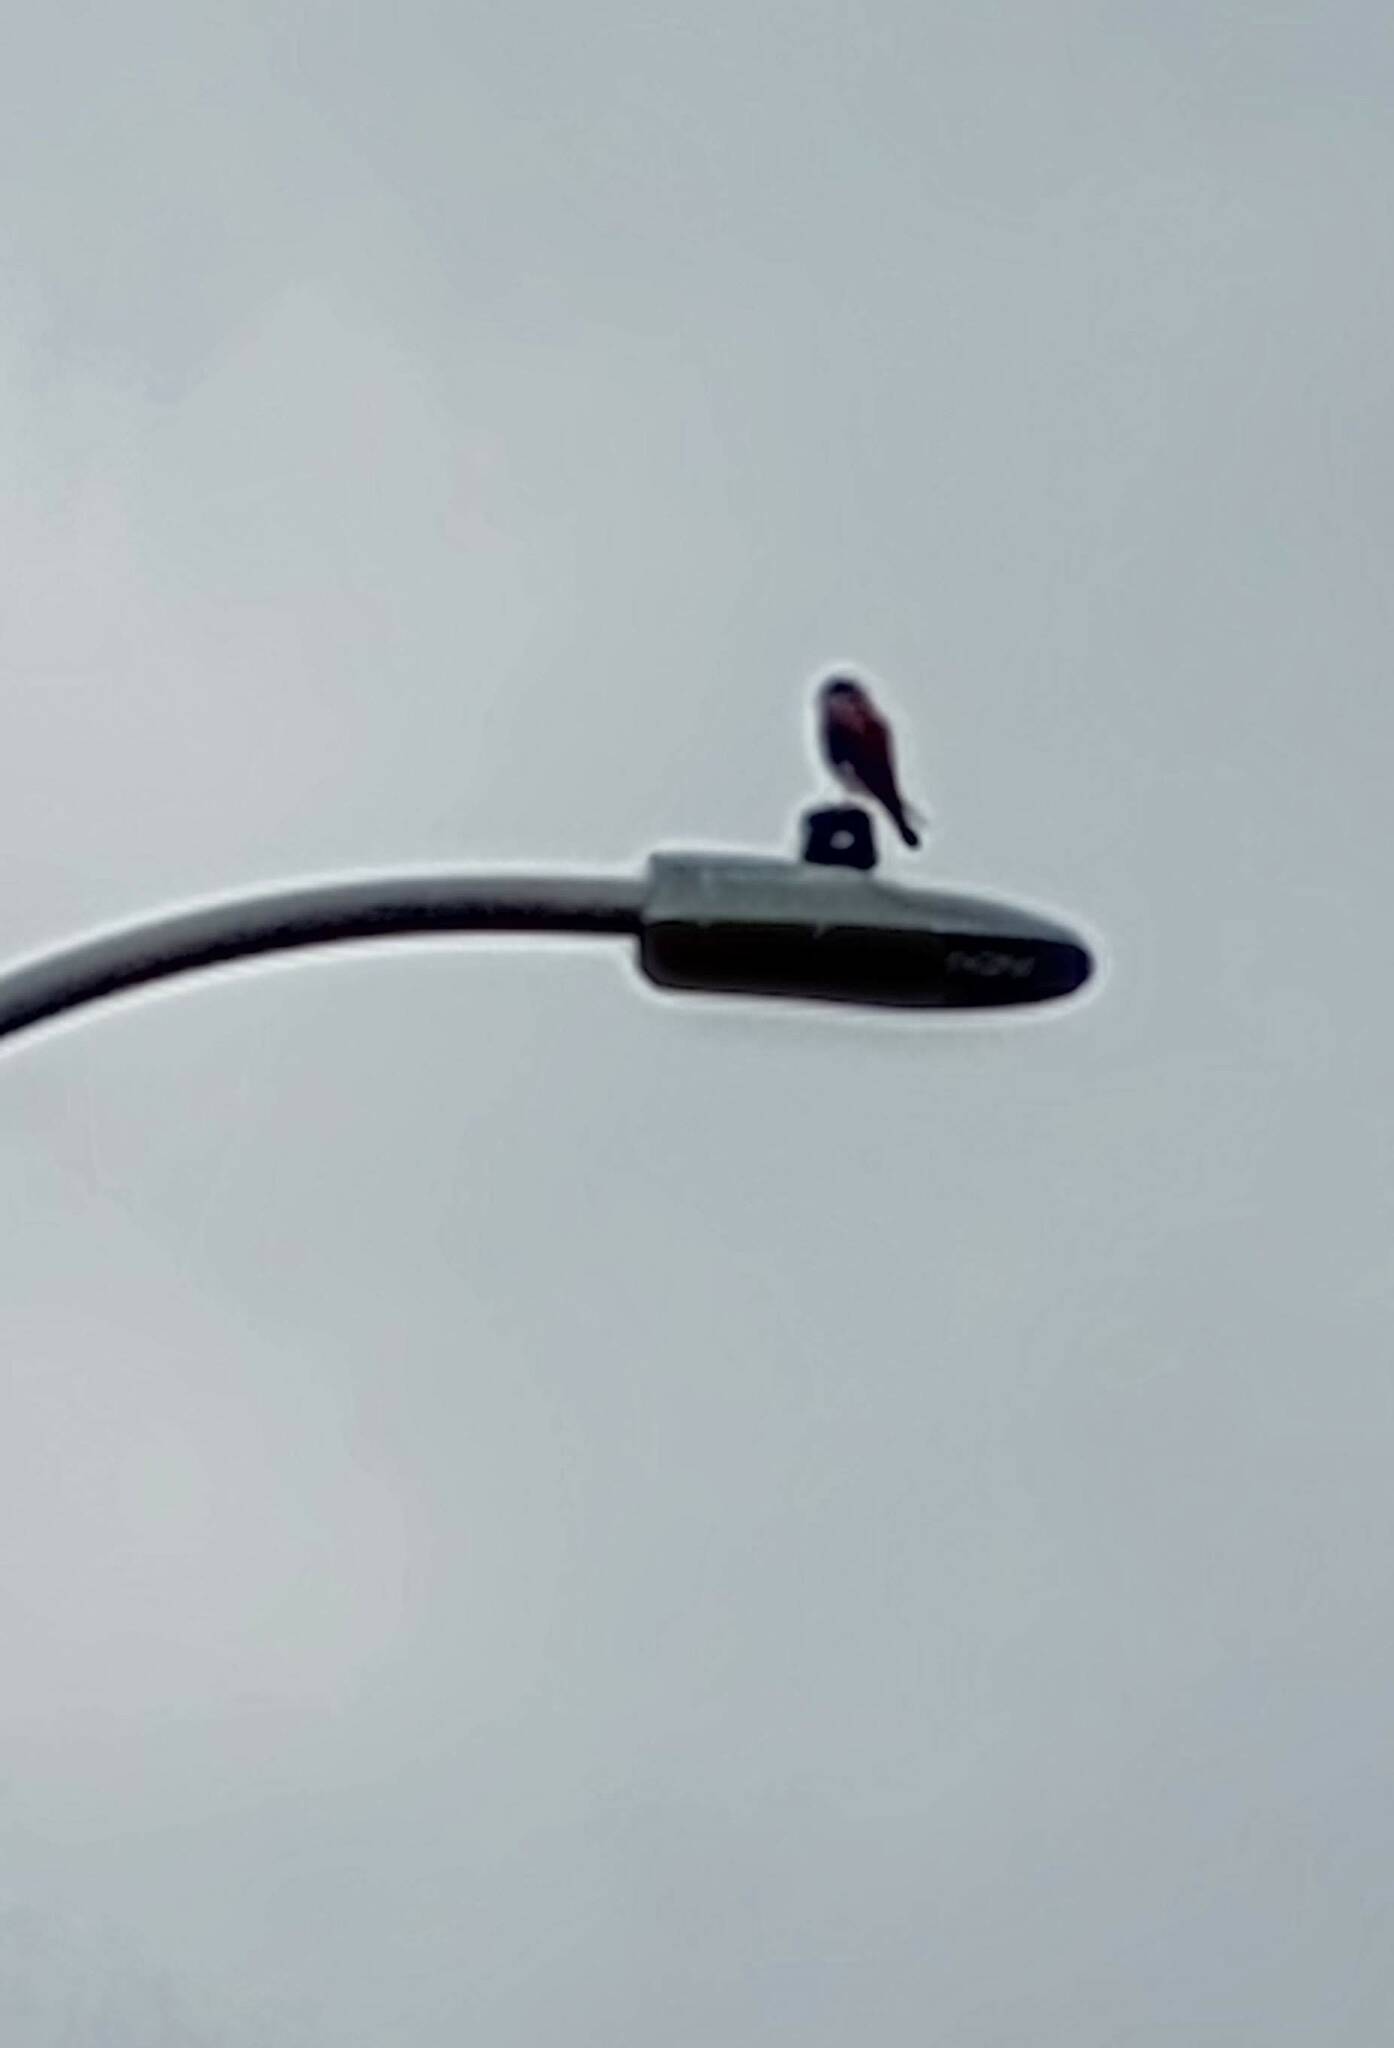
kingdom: Animalia
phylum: Chordata
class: Aves
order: Falconiformes
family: Falconidae
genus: Falco
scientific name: Falco sparverius
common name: American kestrel
